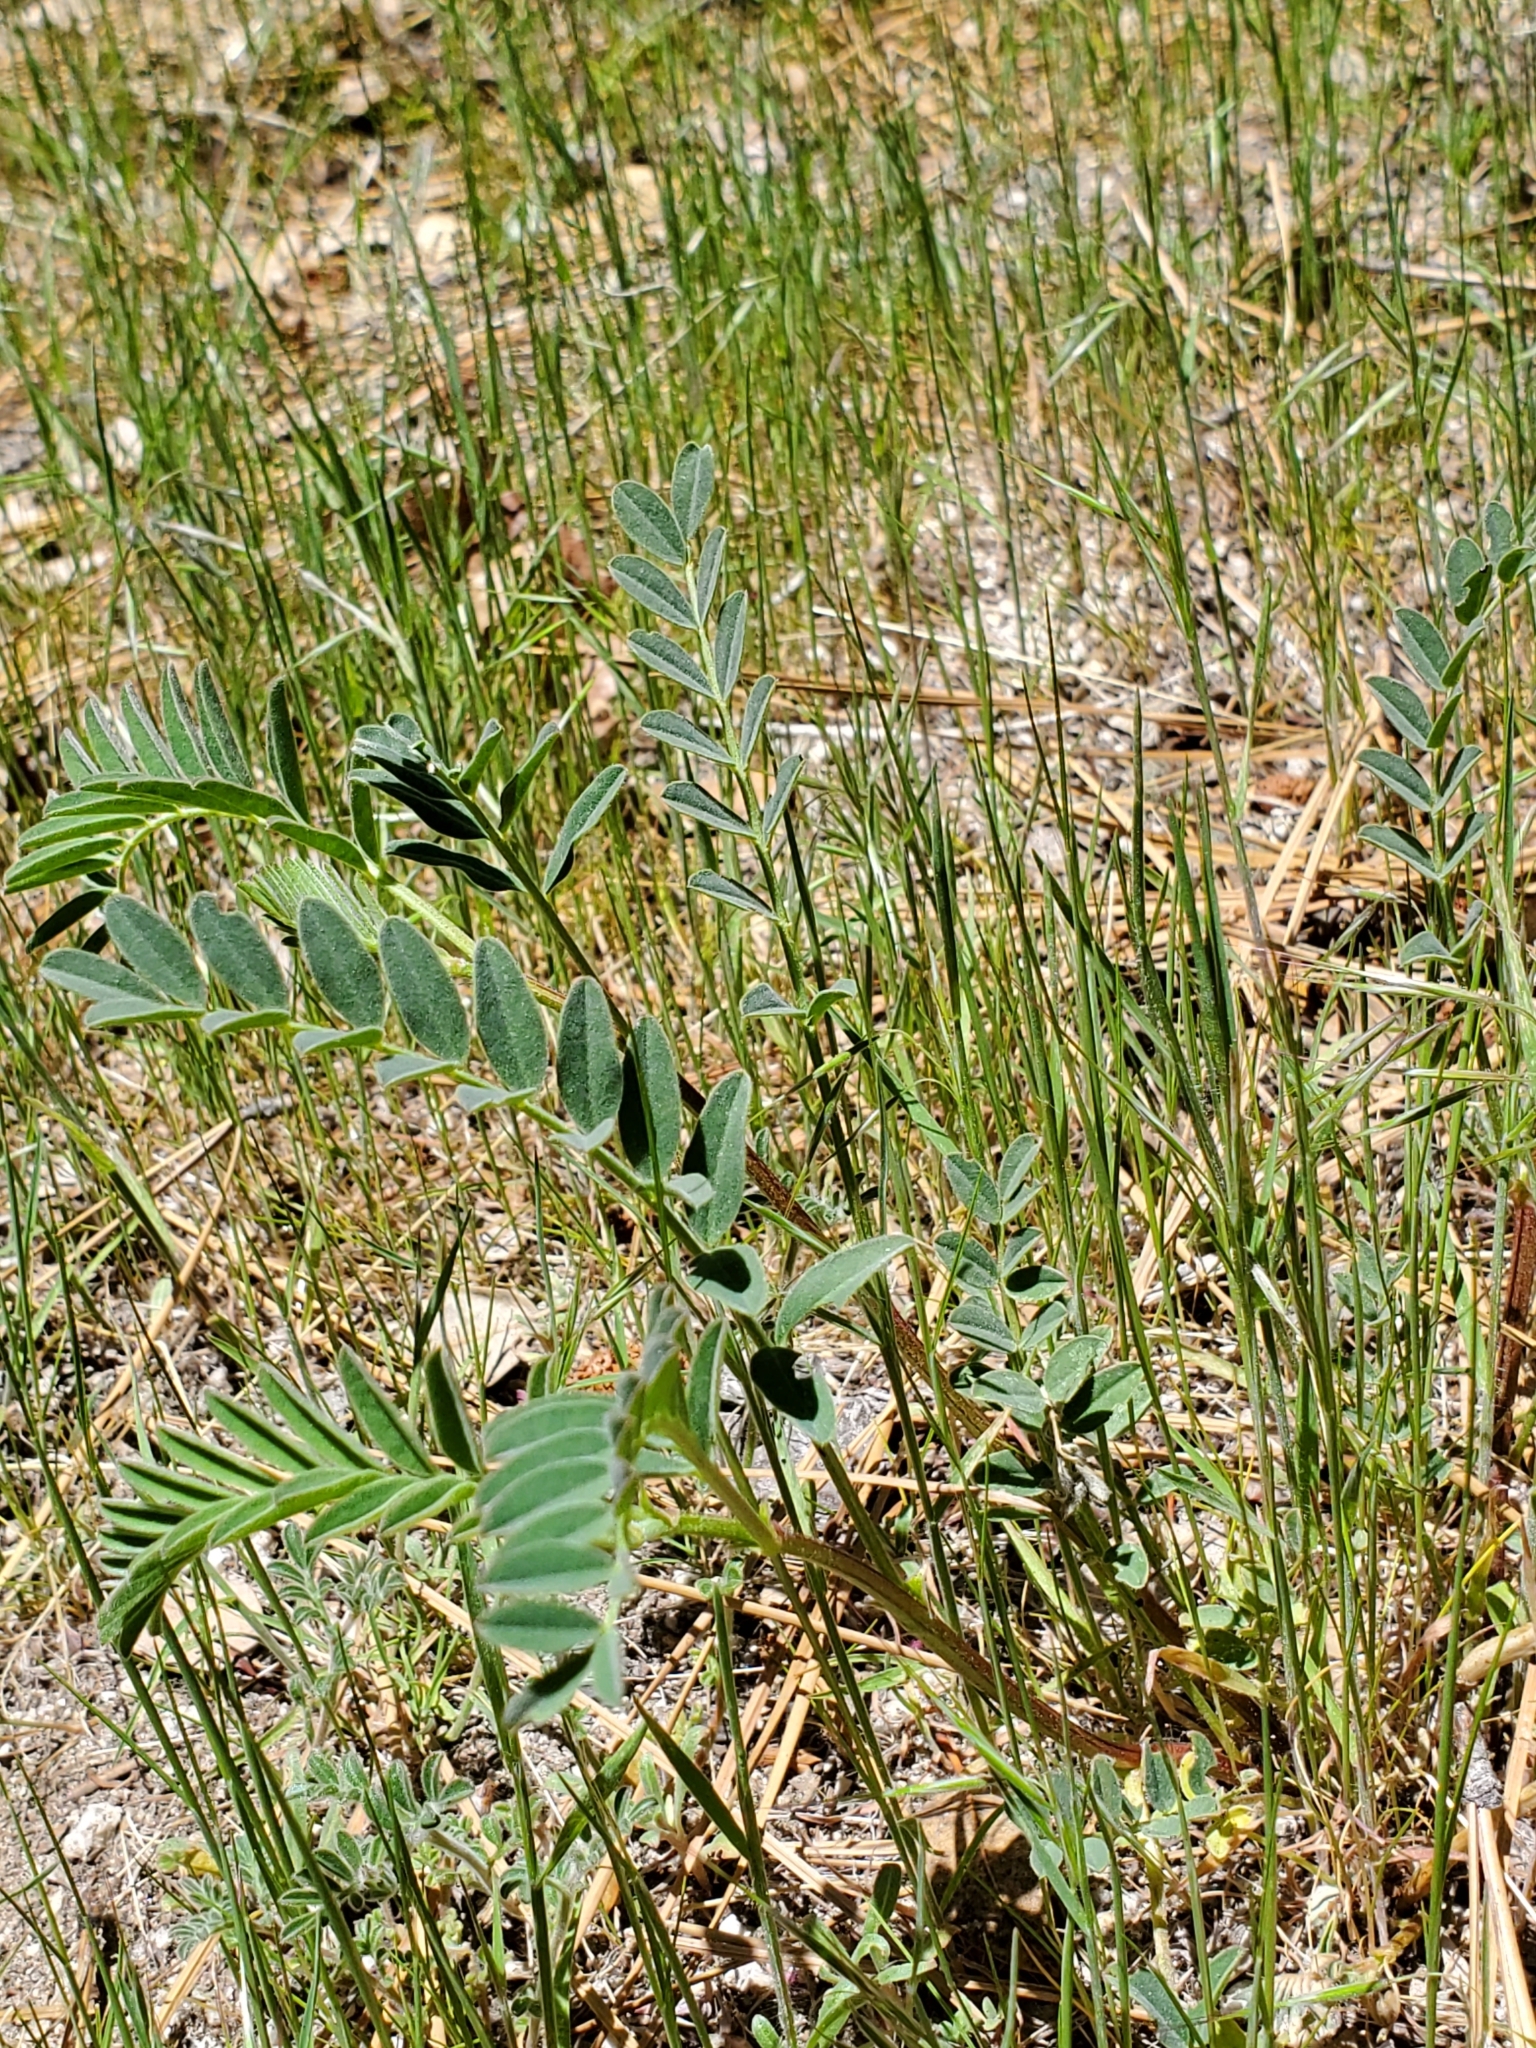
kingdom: Plantae
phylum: Tracheophyta
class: Magnoliopsida
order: Fabales
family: Fabaceae
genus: Astragalus
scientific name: Astragalus douglasii
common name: Jacumba milkvetch
